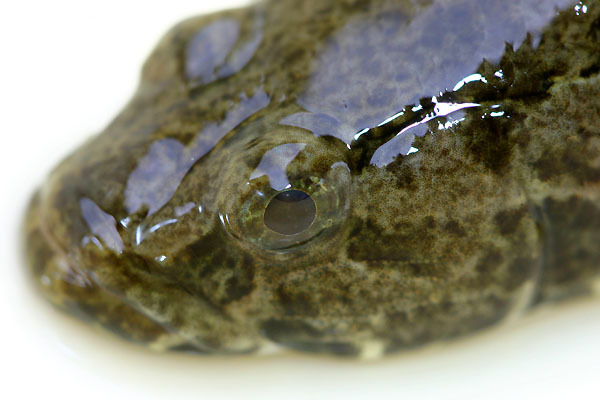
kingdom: Animalia
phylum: Chordata
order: Perciformes
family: Odontobutidae
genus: Odontobutis
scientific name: Odontobutis interrupta
